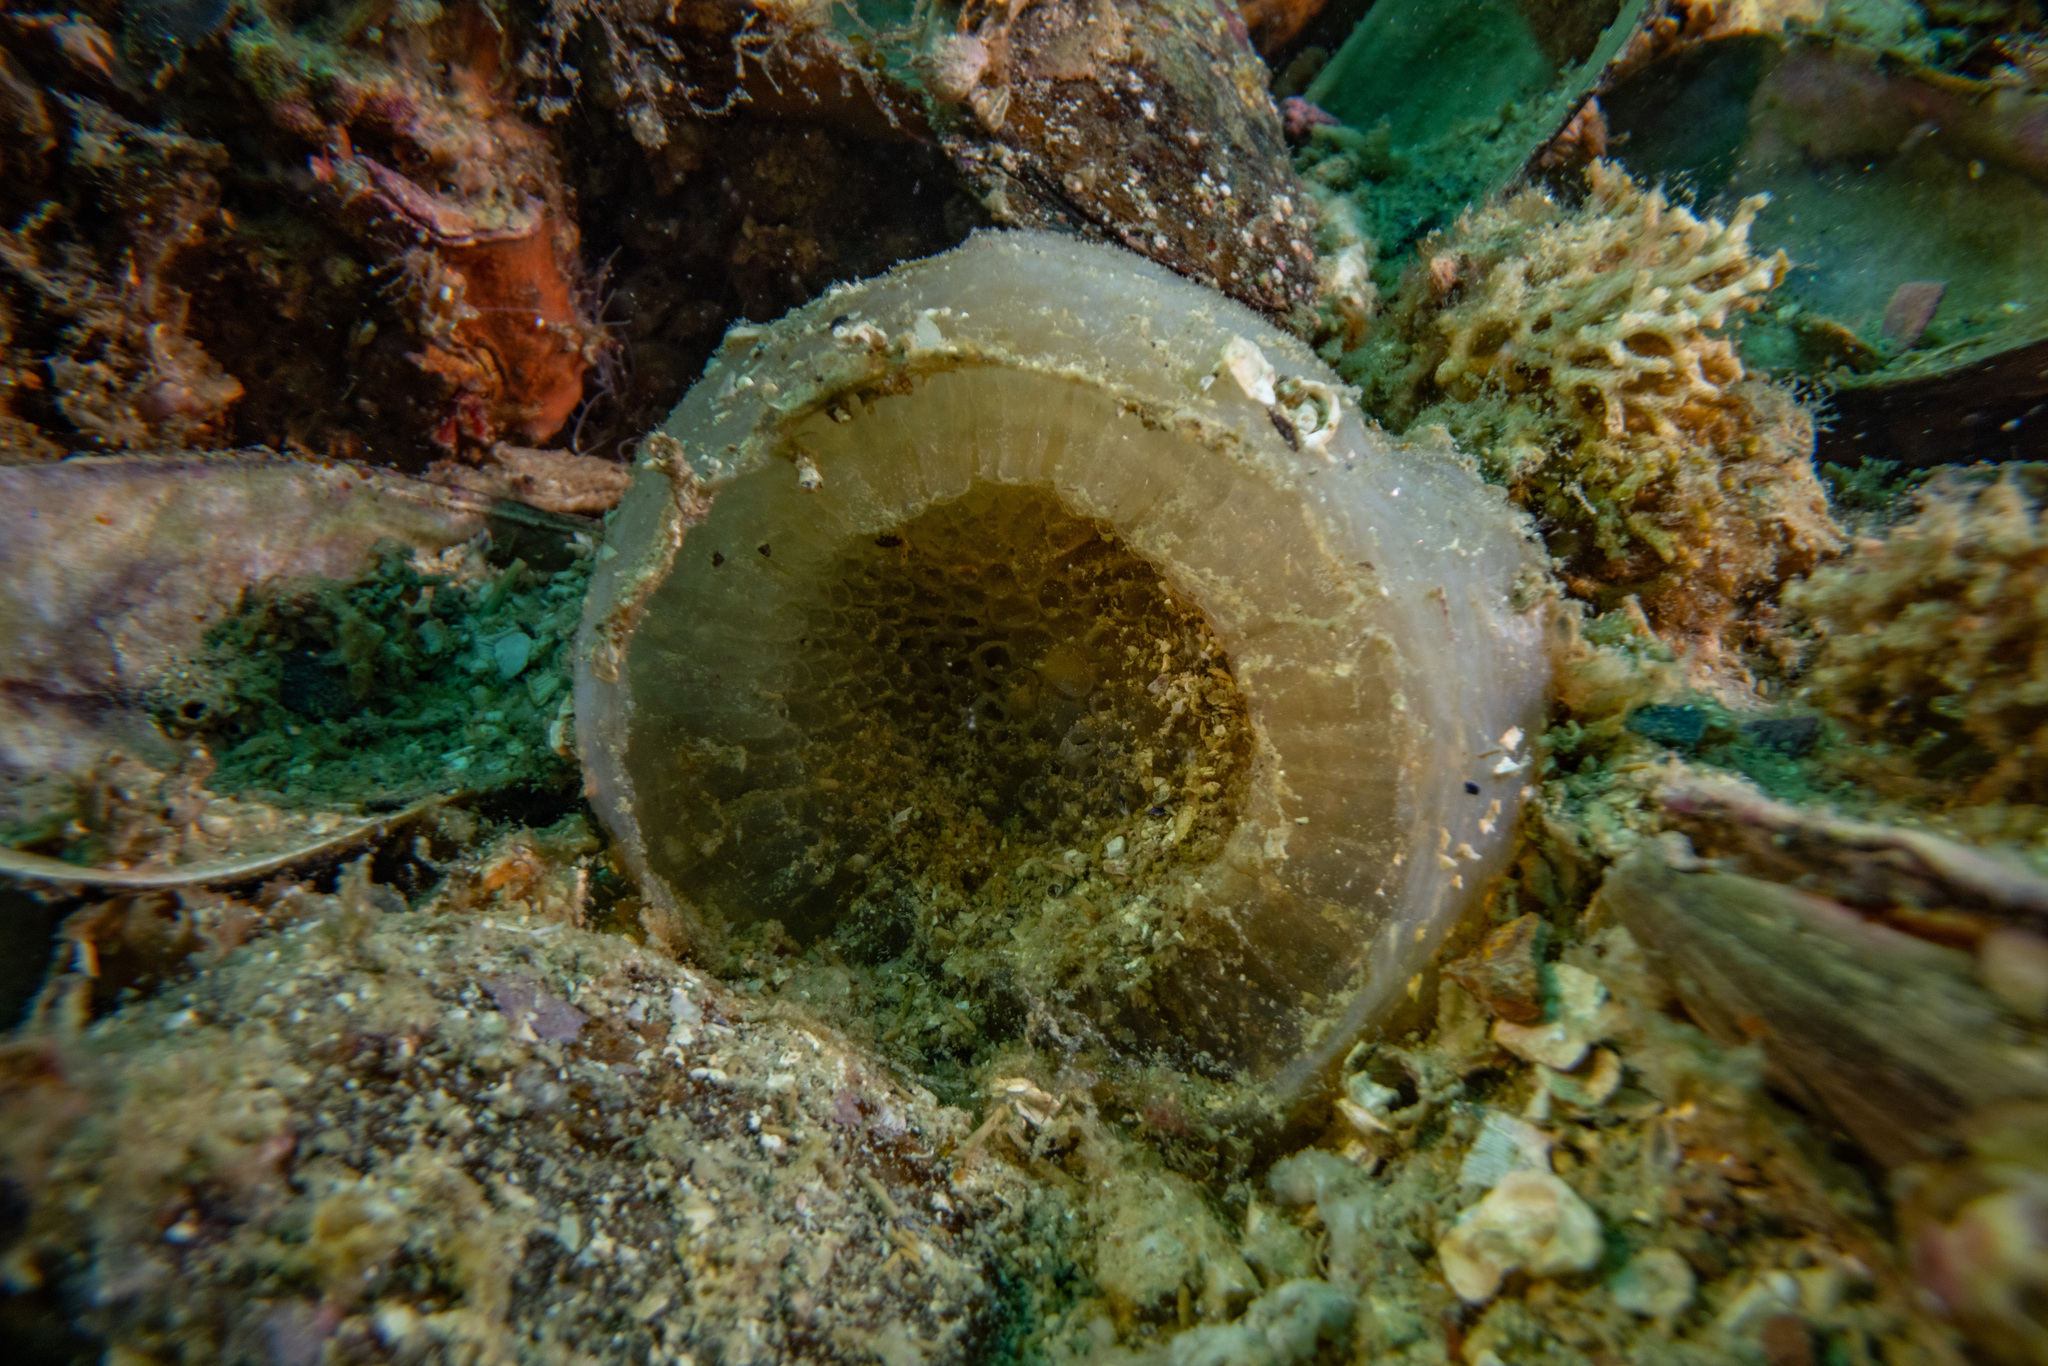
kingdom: Animalia
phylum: Mollusca
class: Gastropoda
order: Littorinimorpha
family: Cymatiidae
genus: Cabestana
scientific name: Cabestana spengleri
